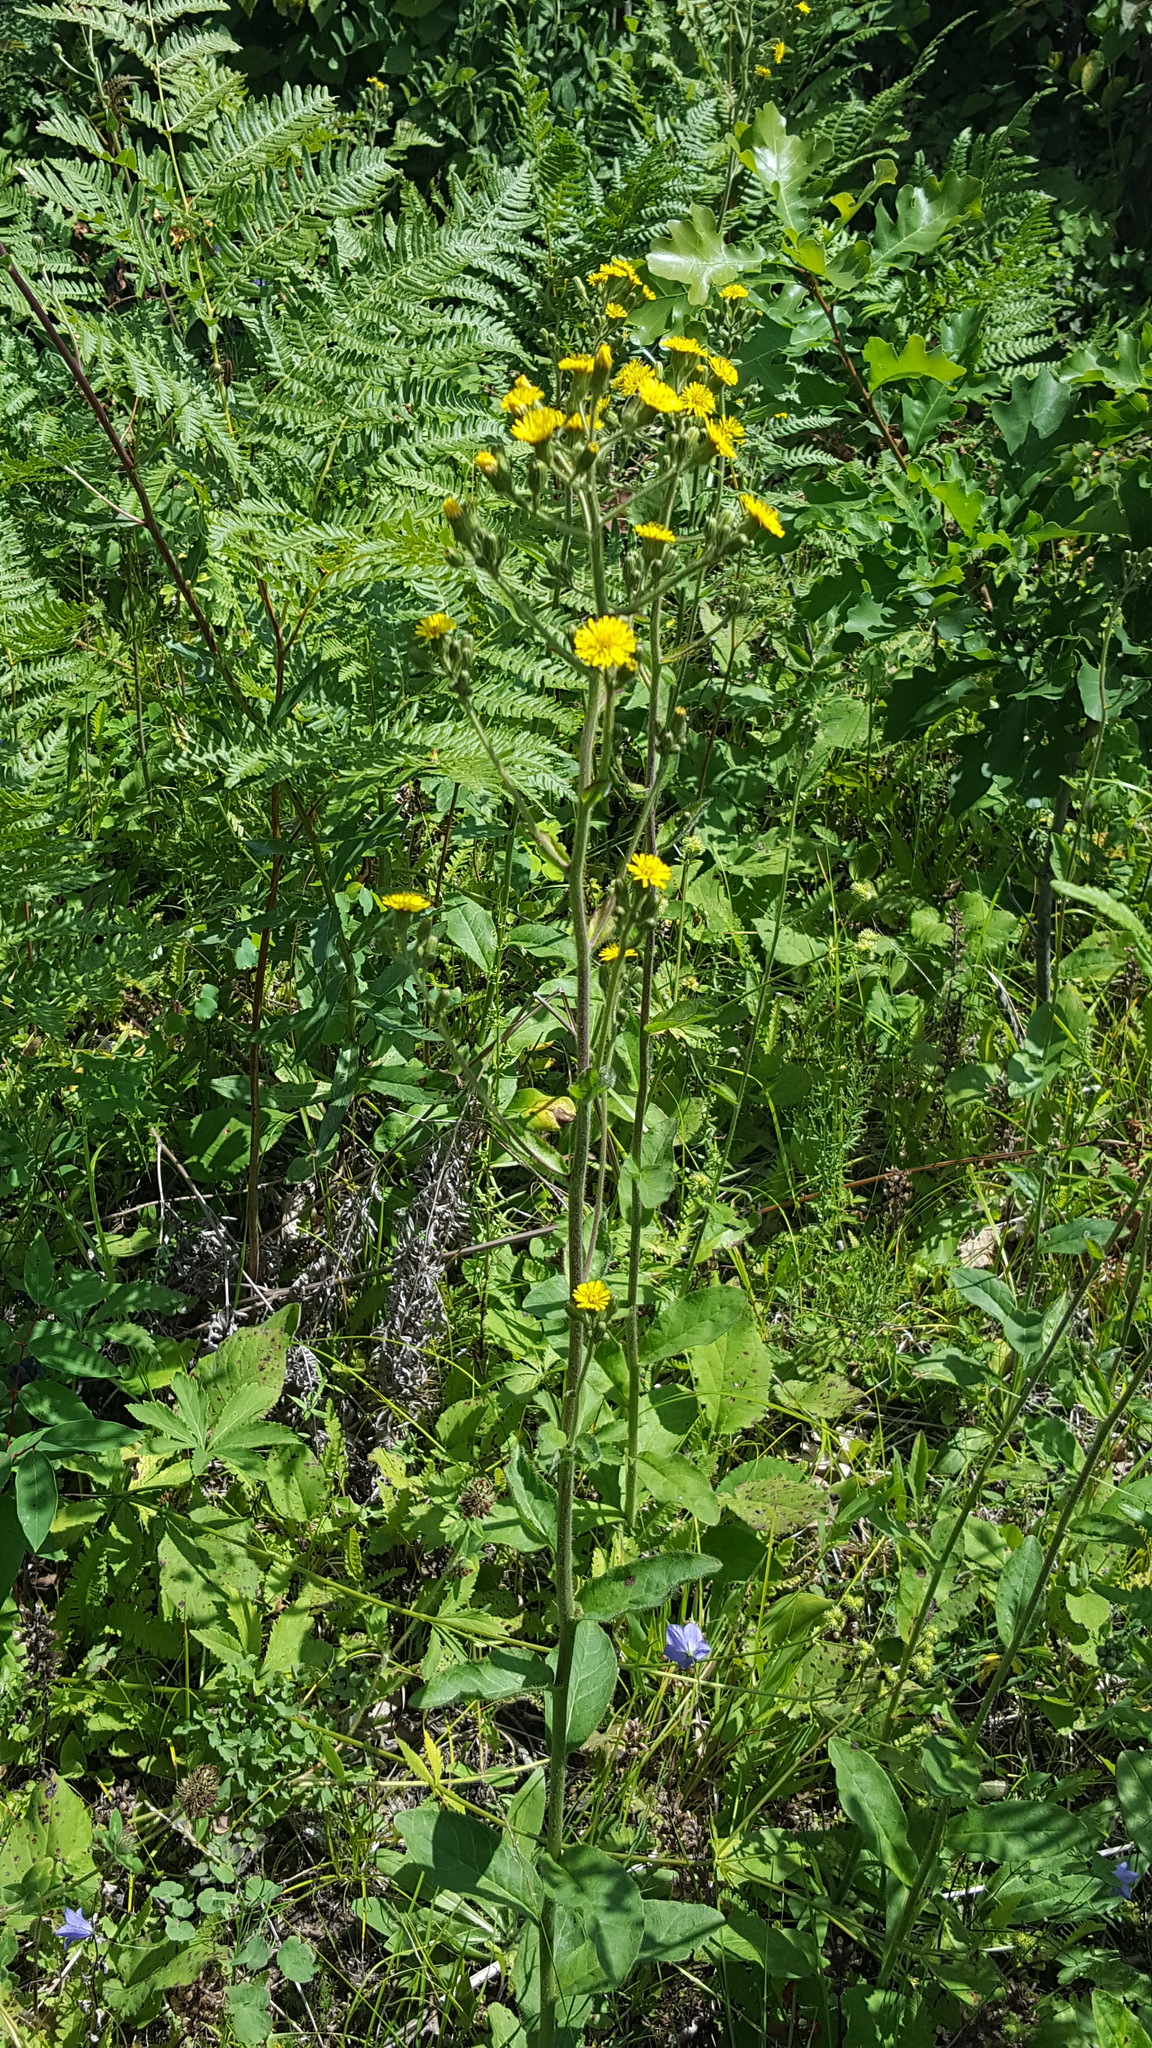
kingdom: Plantae
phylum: Tracheophyta
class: Magnoliopsida
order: Asterales
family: Asteraceae
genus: Hieracium
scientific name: Hieracium scabrum
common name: Rough hawkweed
